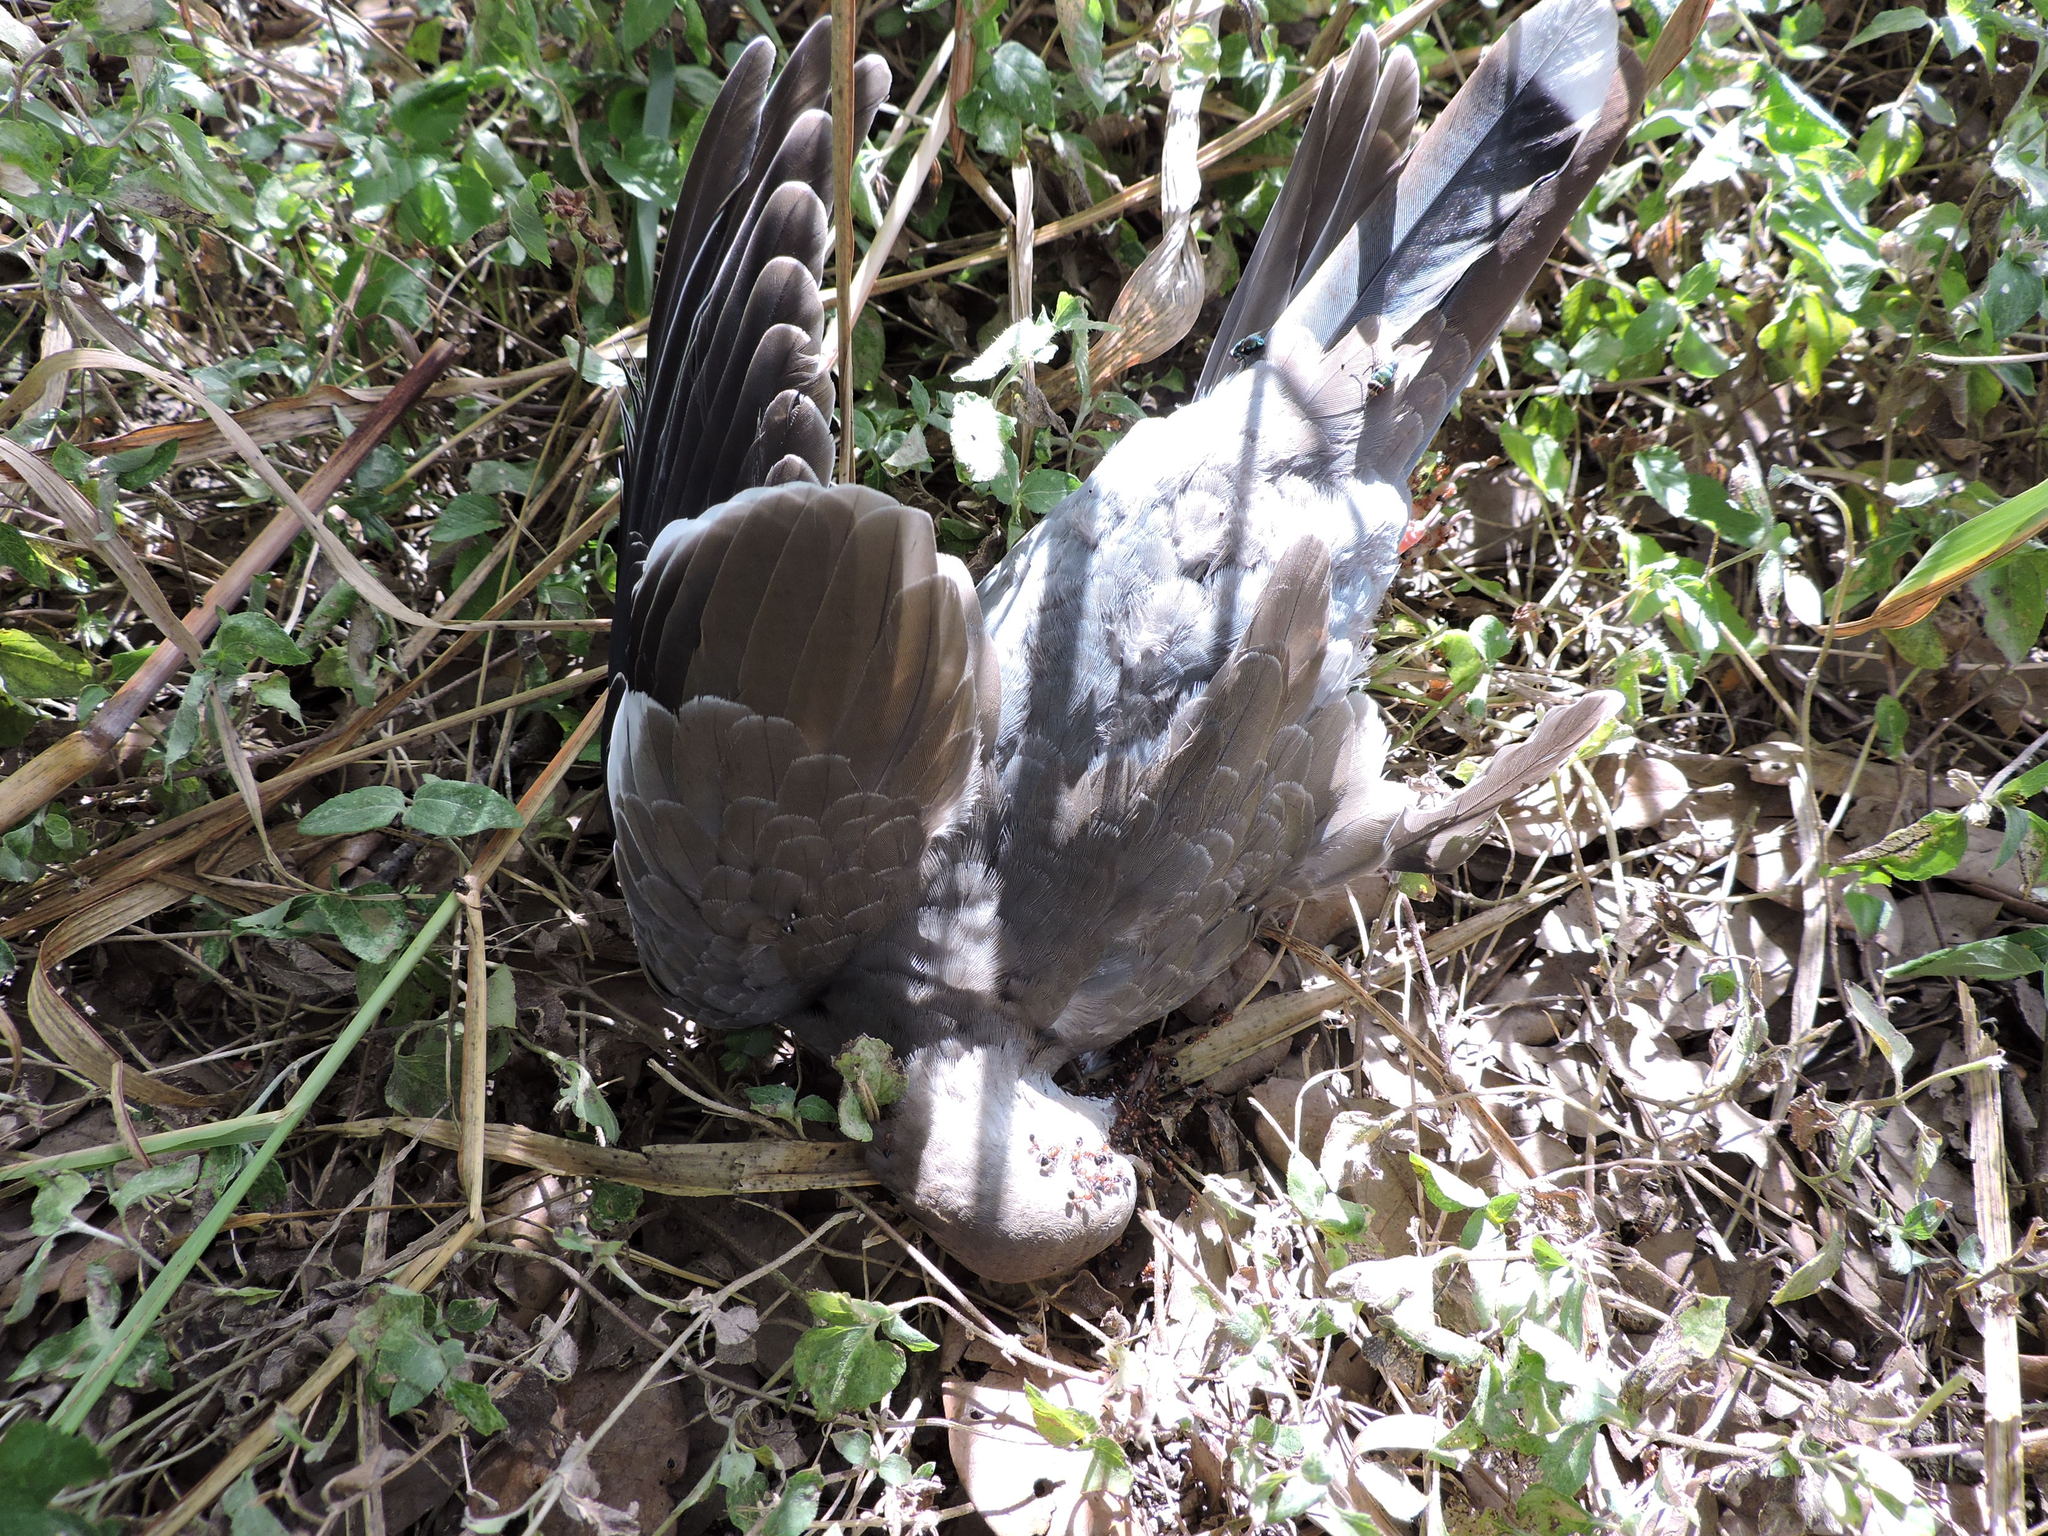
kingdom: Animalia
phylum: Chordata
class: Aves
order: Columbiformes
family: Columbidae
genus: Zenaida
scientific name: Zenaida asiatica
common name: White-winged dove
